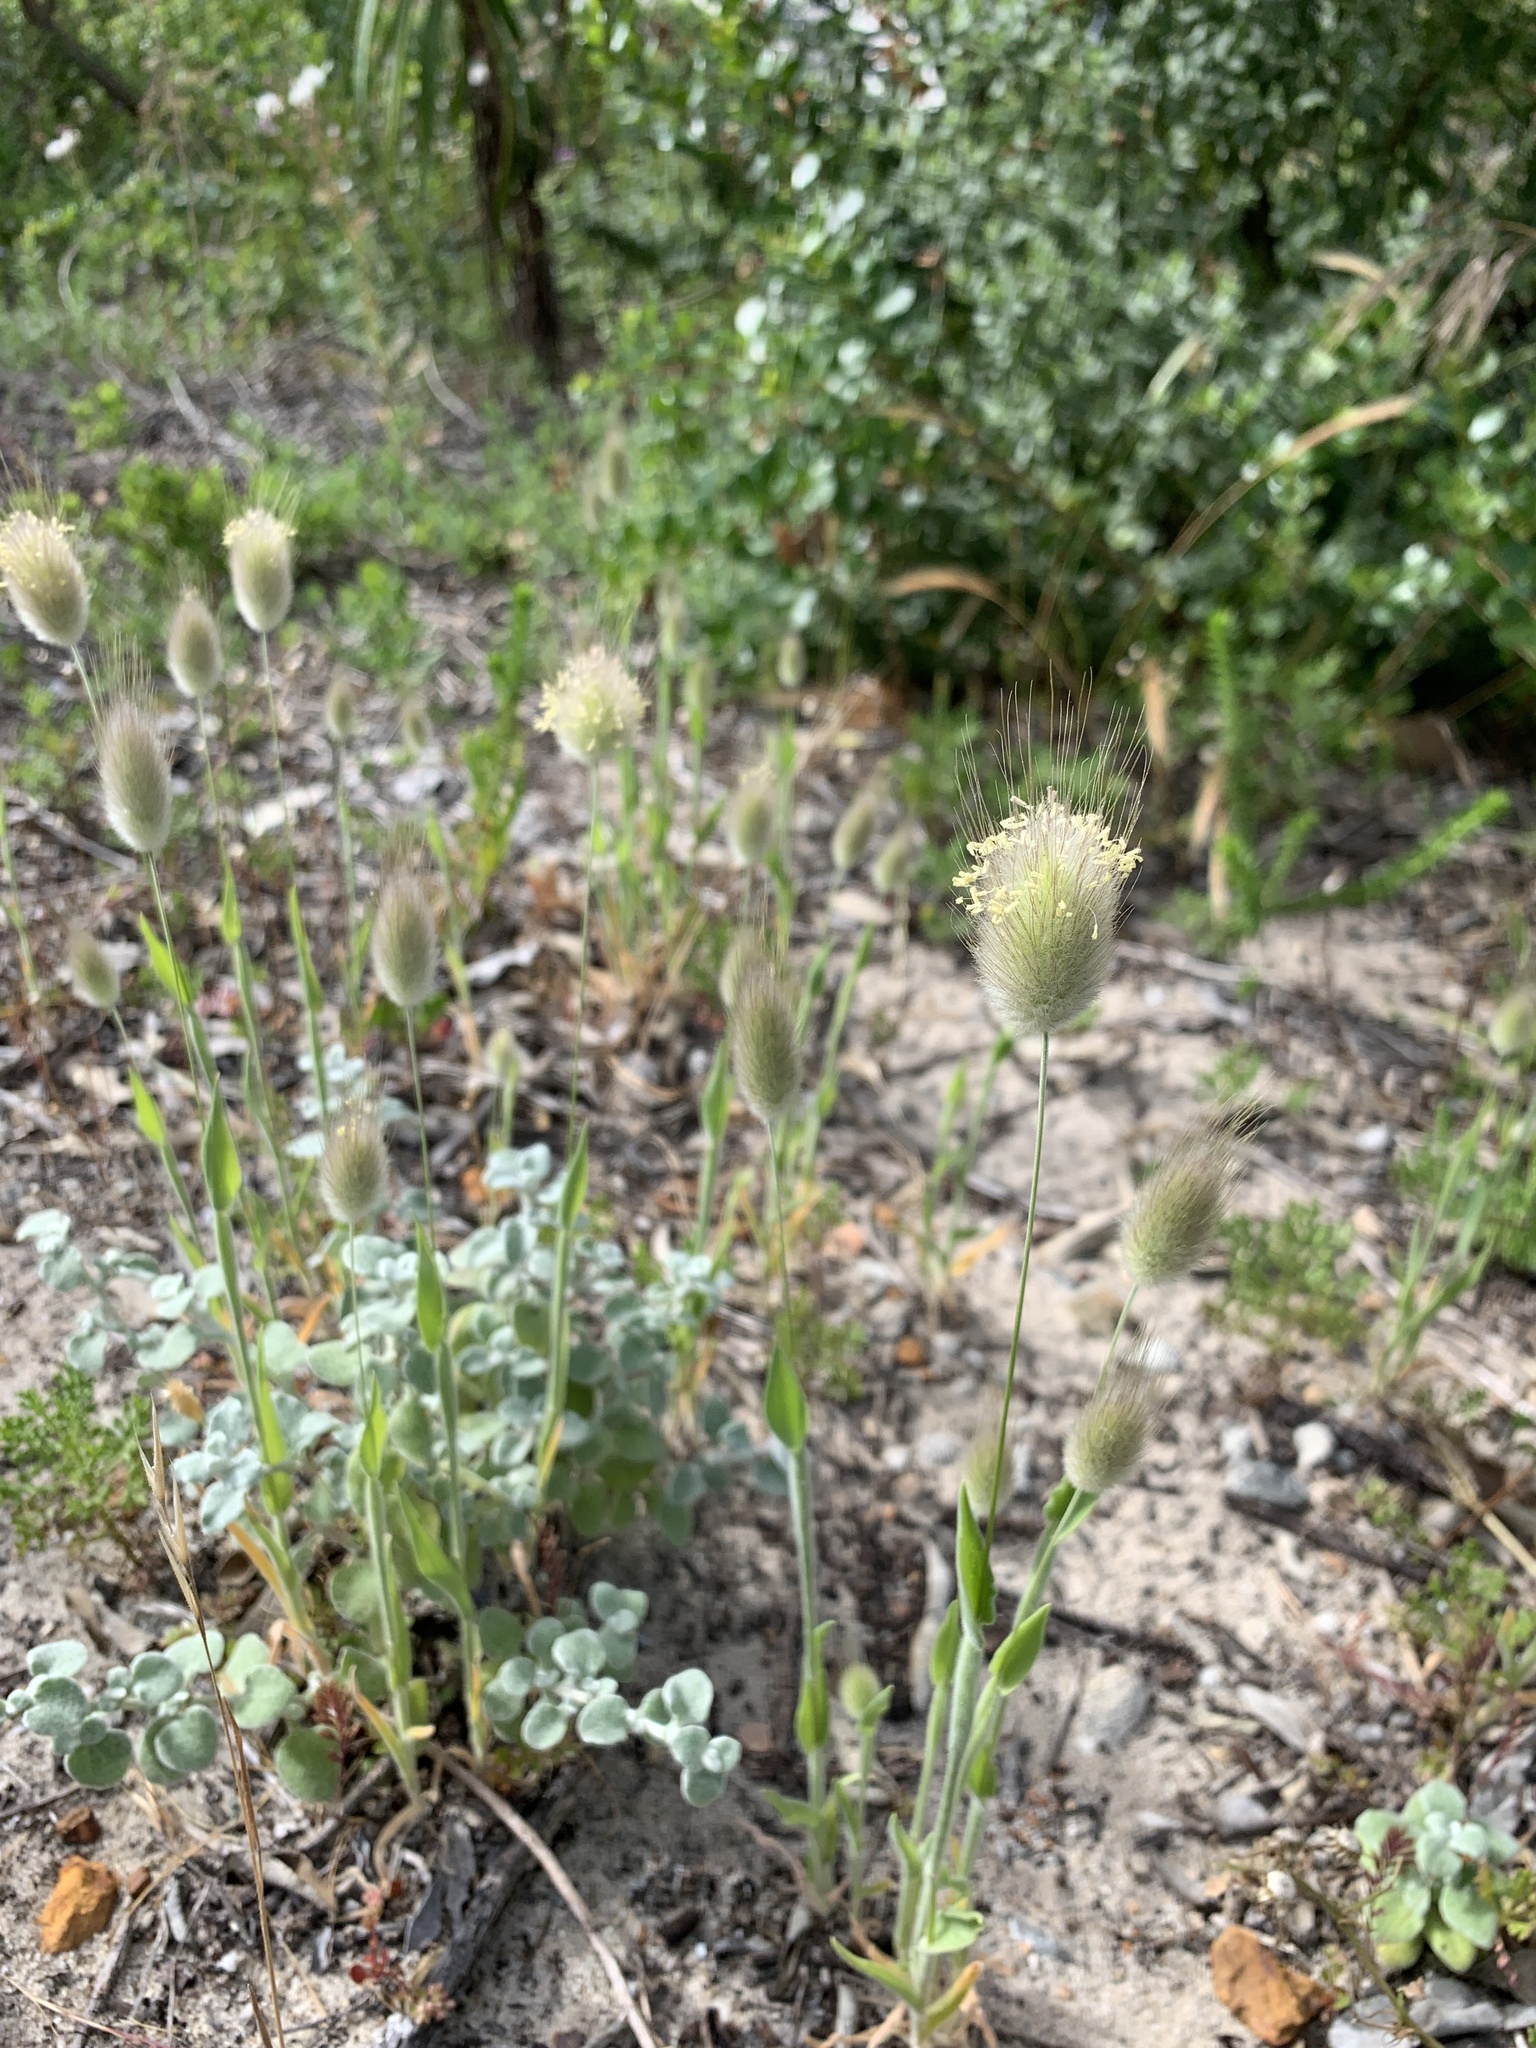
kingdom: Plantae
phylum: Tracheophyta
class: Liliopsida
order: Poales
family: Poaceae
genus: Lagurus
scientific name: Lagurus ovatus
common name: Hare's-tail
